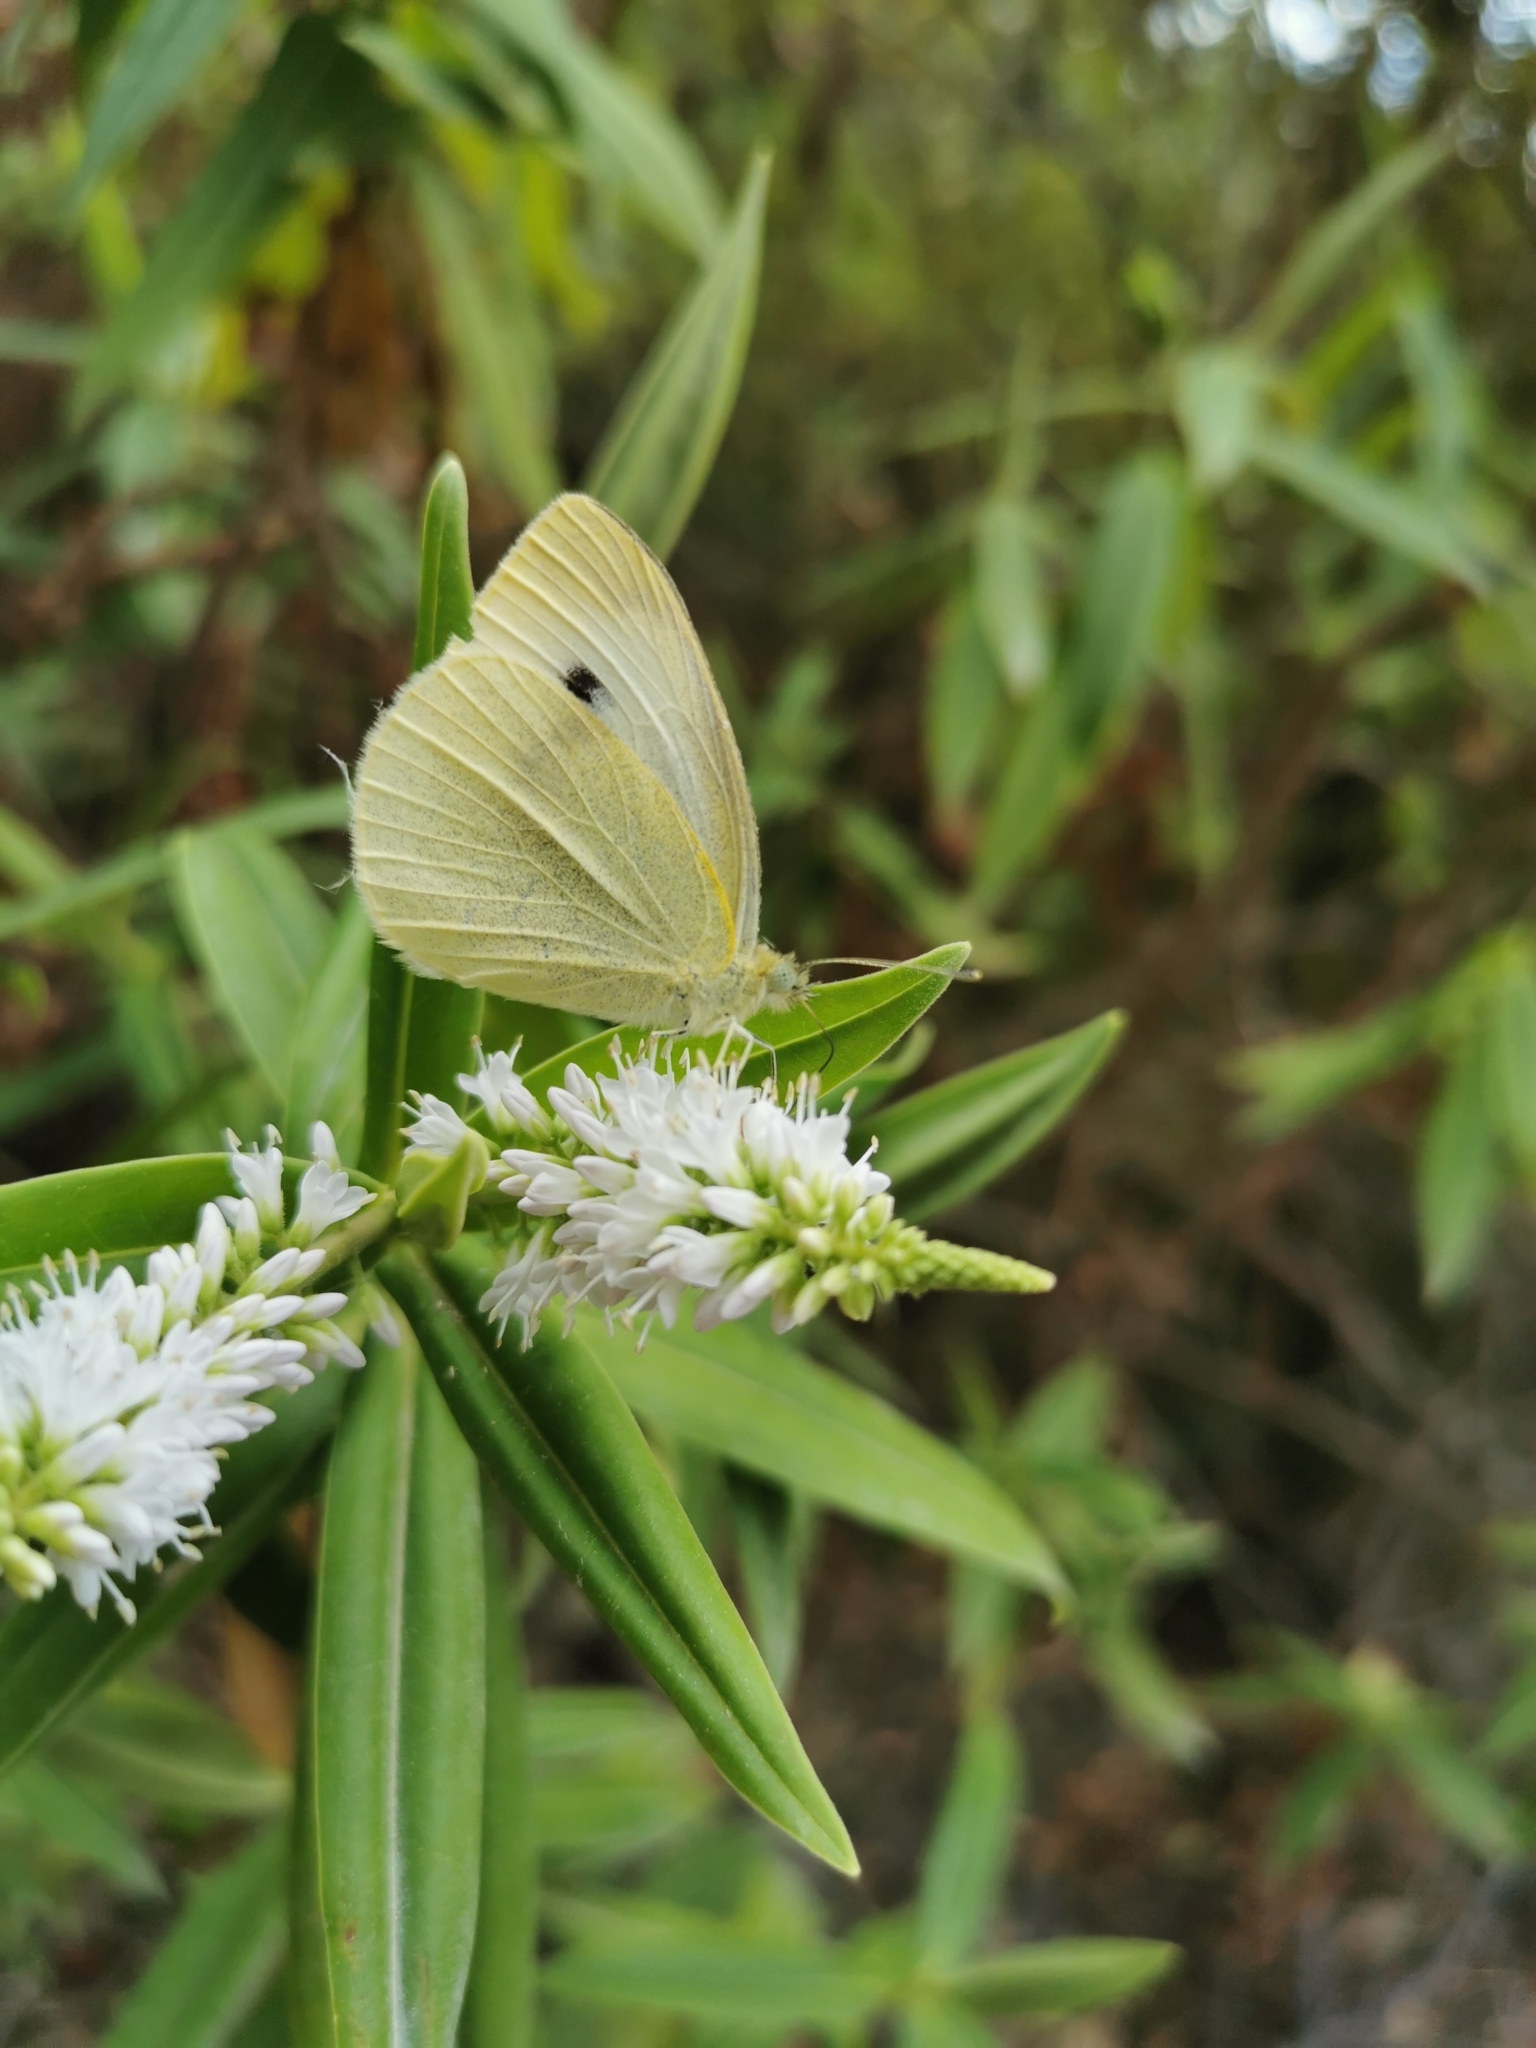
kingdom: Animalia
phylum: Arthropoda
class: Insecta
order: Lepidoptera
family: Pieridae
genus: Pieris
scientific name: Pieris rapae
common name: Small white
